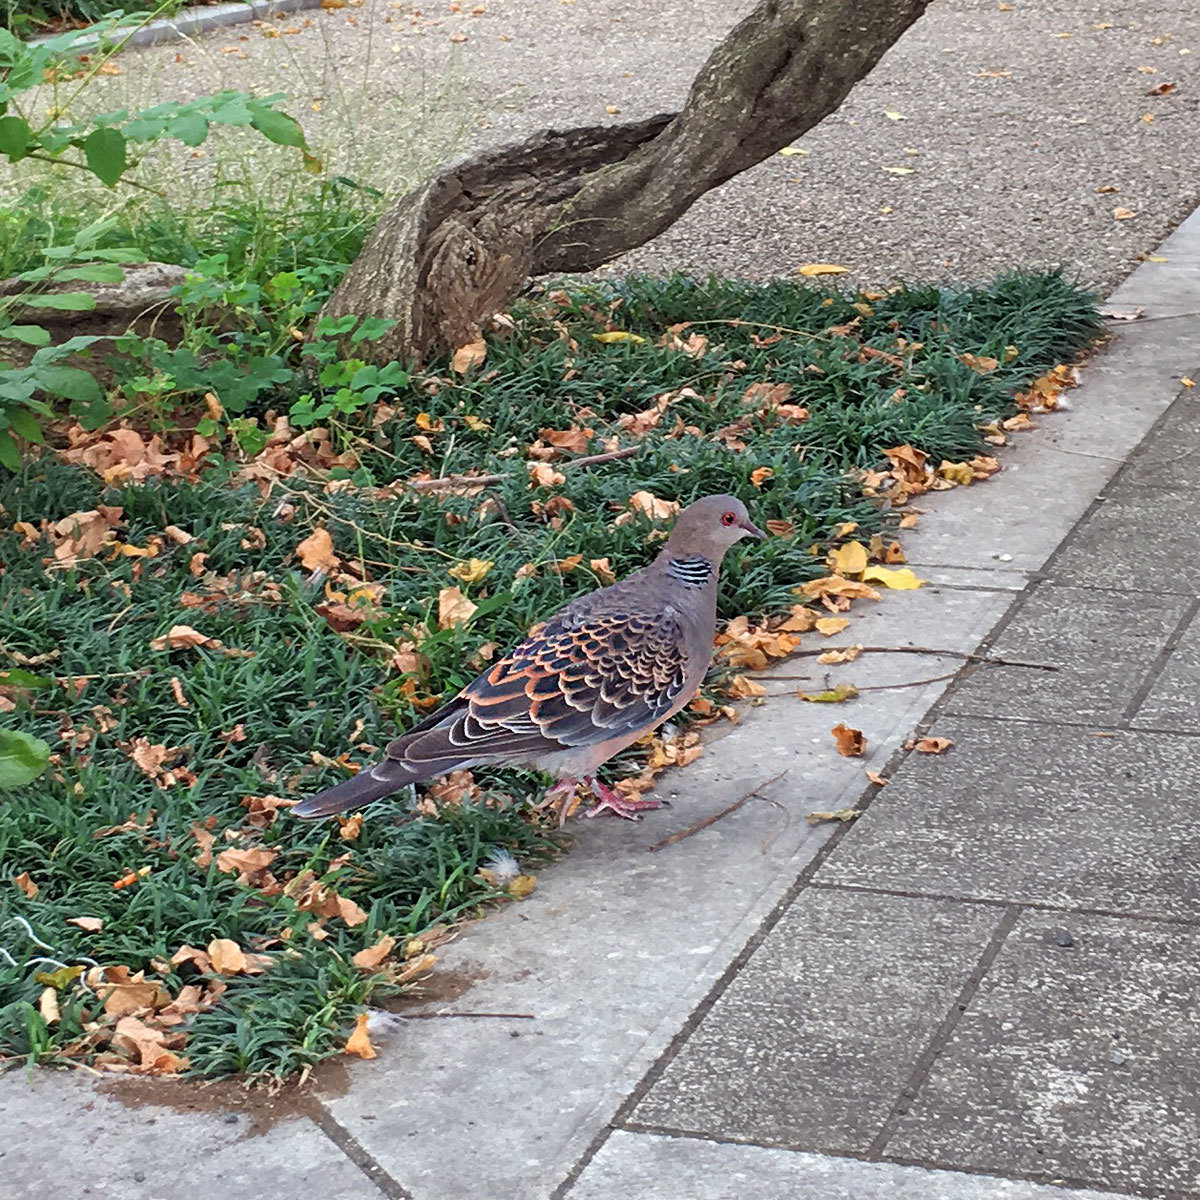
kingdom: Animalia
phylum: Chordata
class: Aves
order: Columbiformes
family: Columbidae
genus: Streptopelia
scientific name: Streptopelia orientalis
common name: Oriental turtle dove
